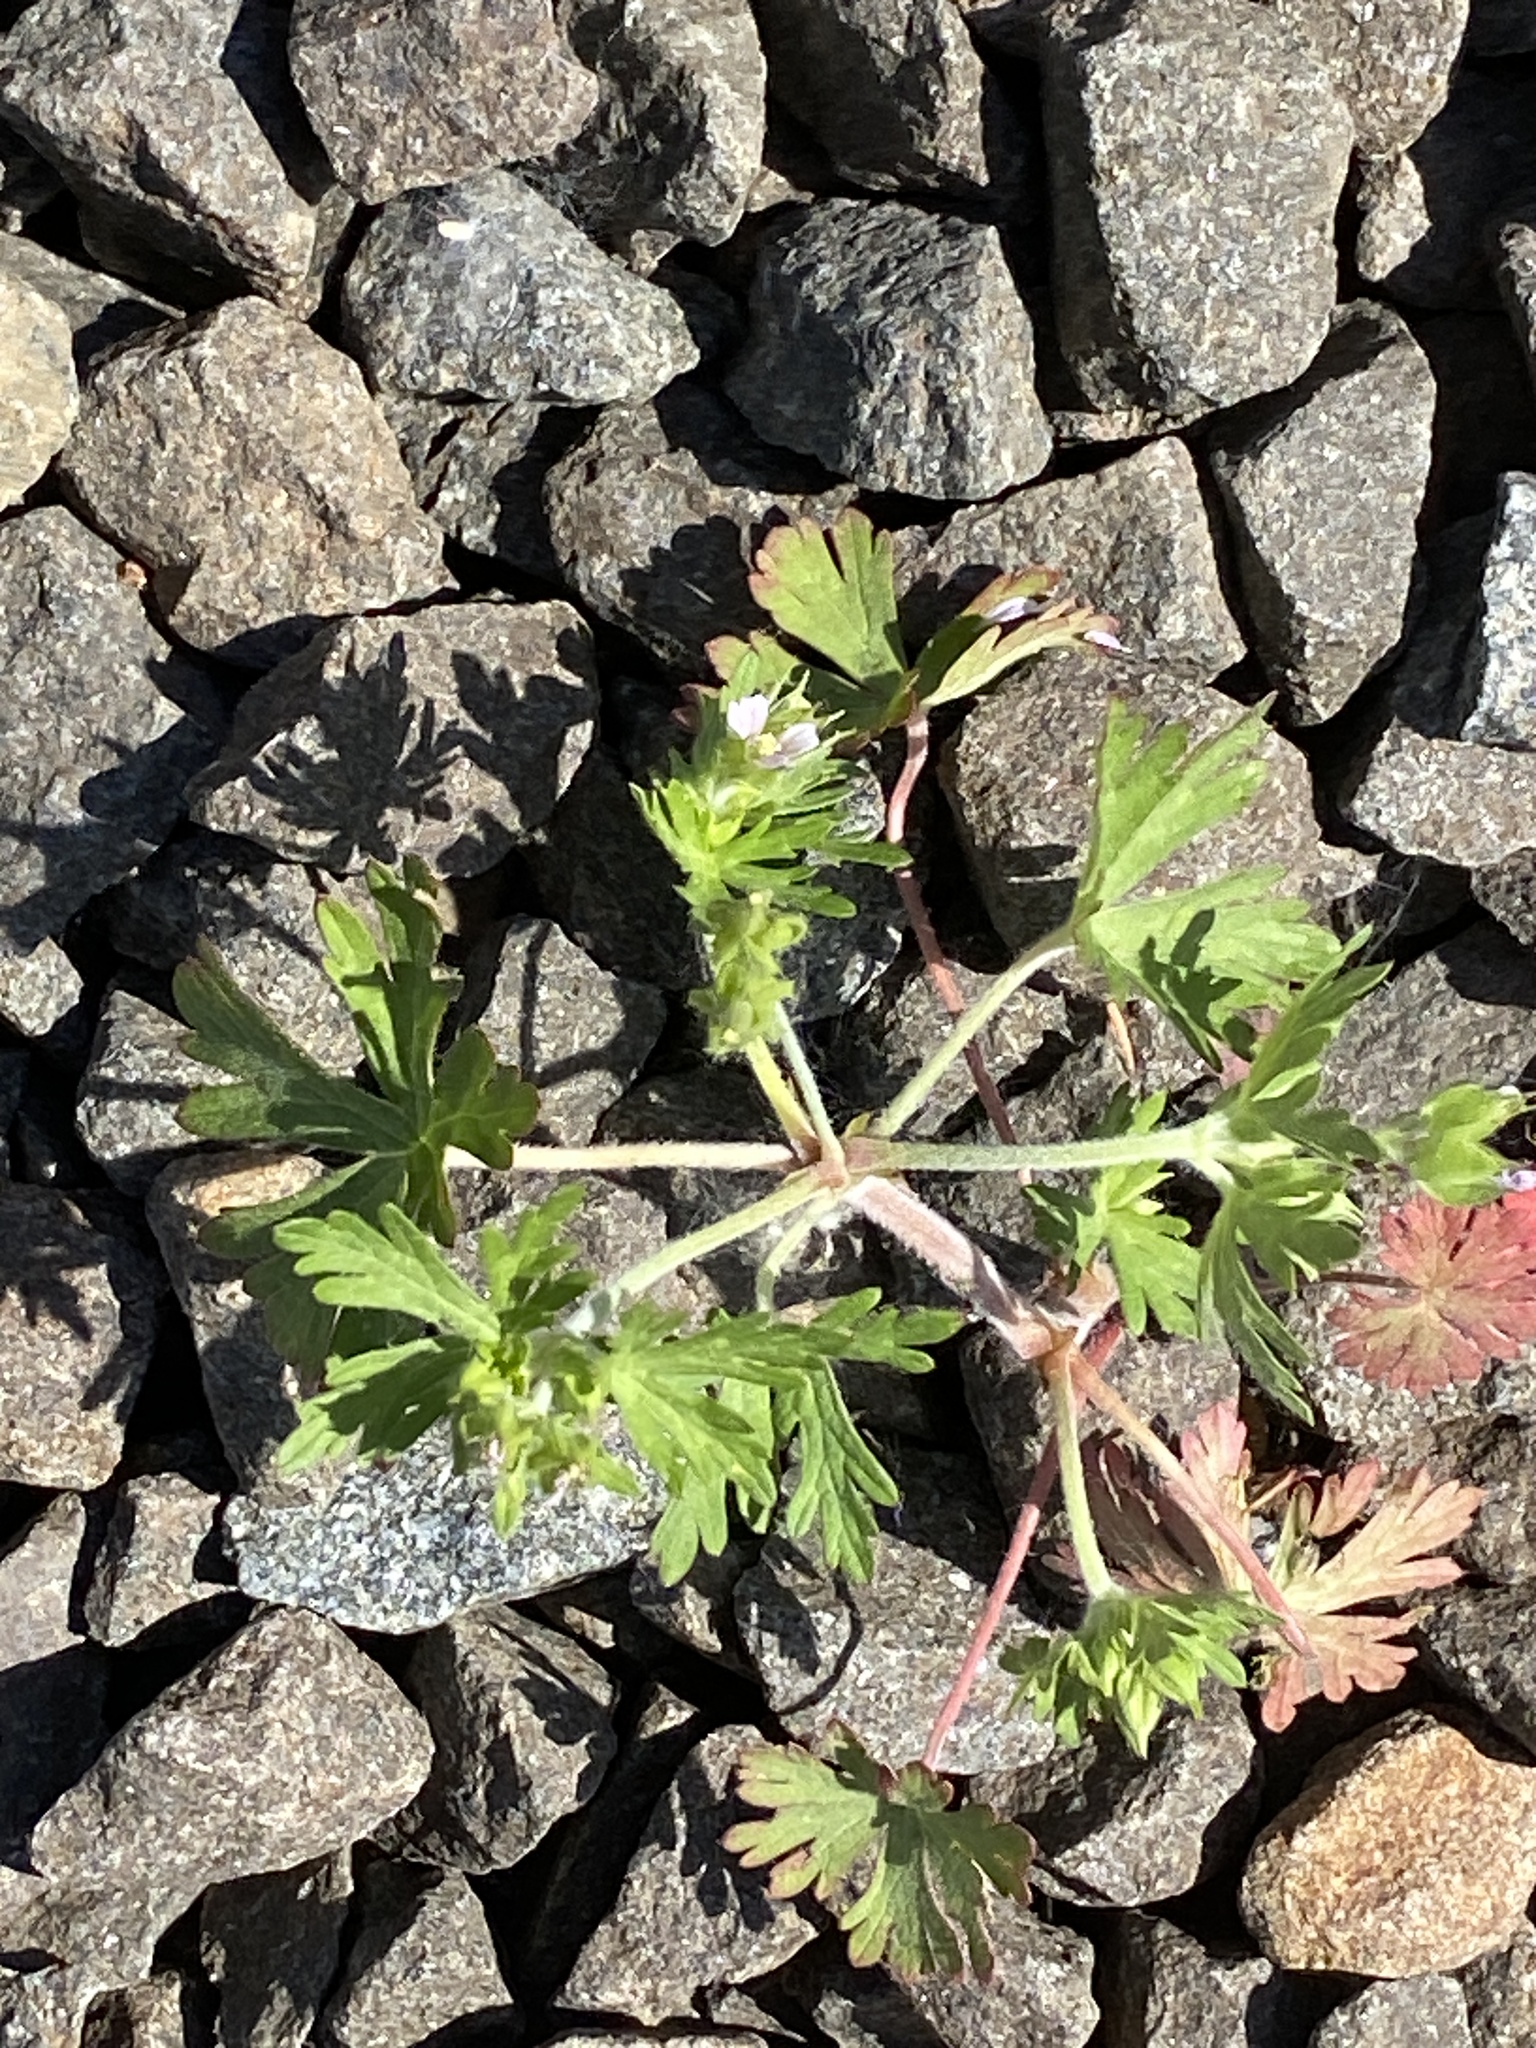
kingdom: Plantae
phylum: Tracheophyta
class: Magnoliopsida
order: Geraniales
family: Geraniaceae
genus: Geranium
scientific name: Geranium carolinianum
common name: Carolina crane's-bill
